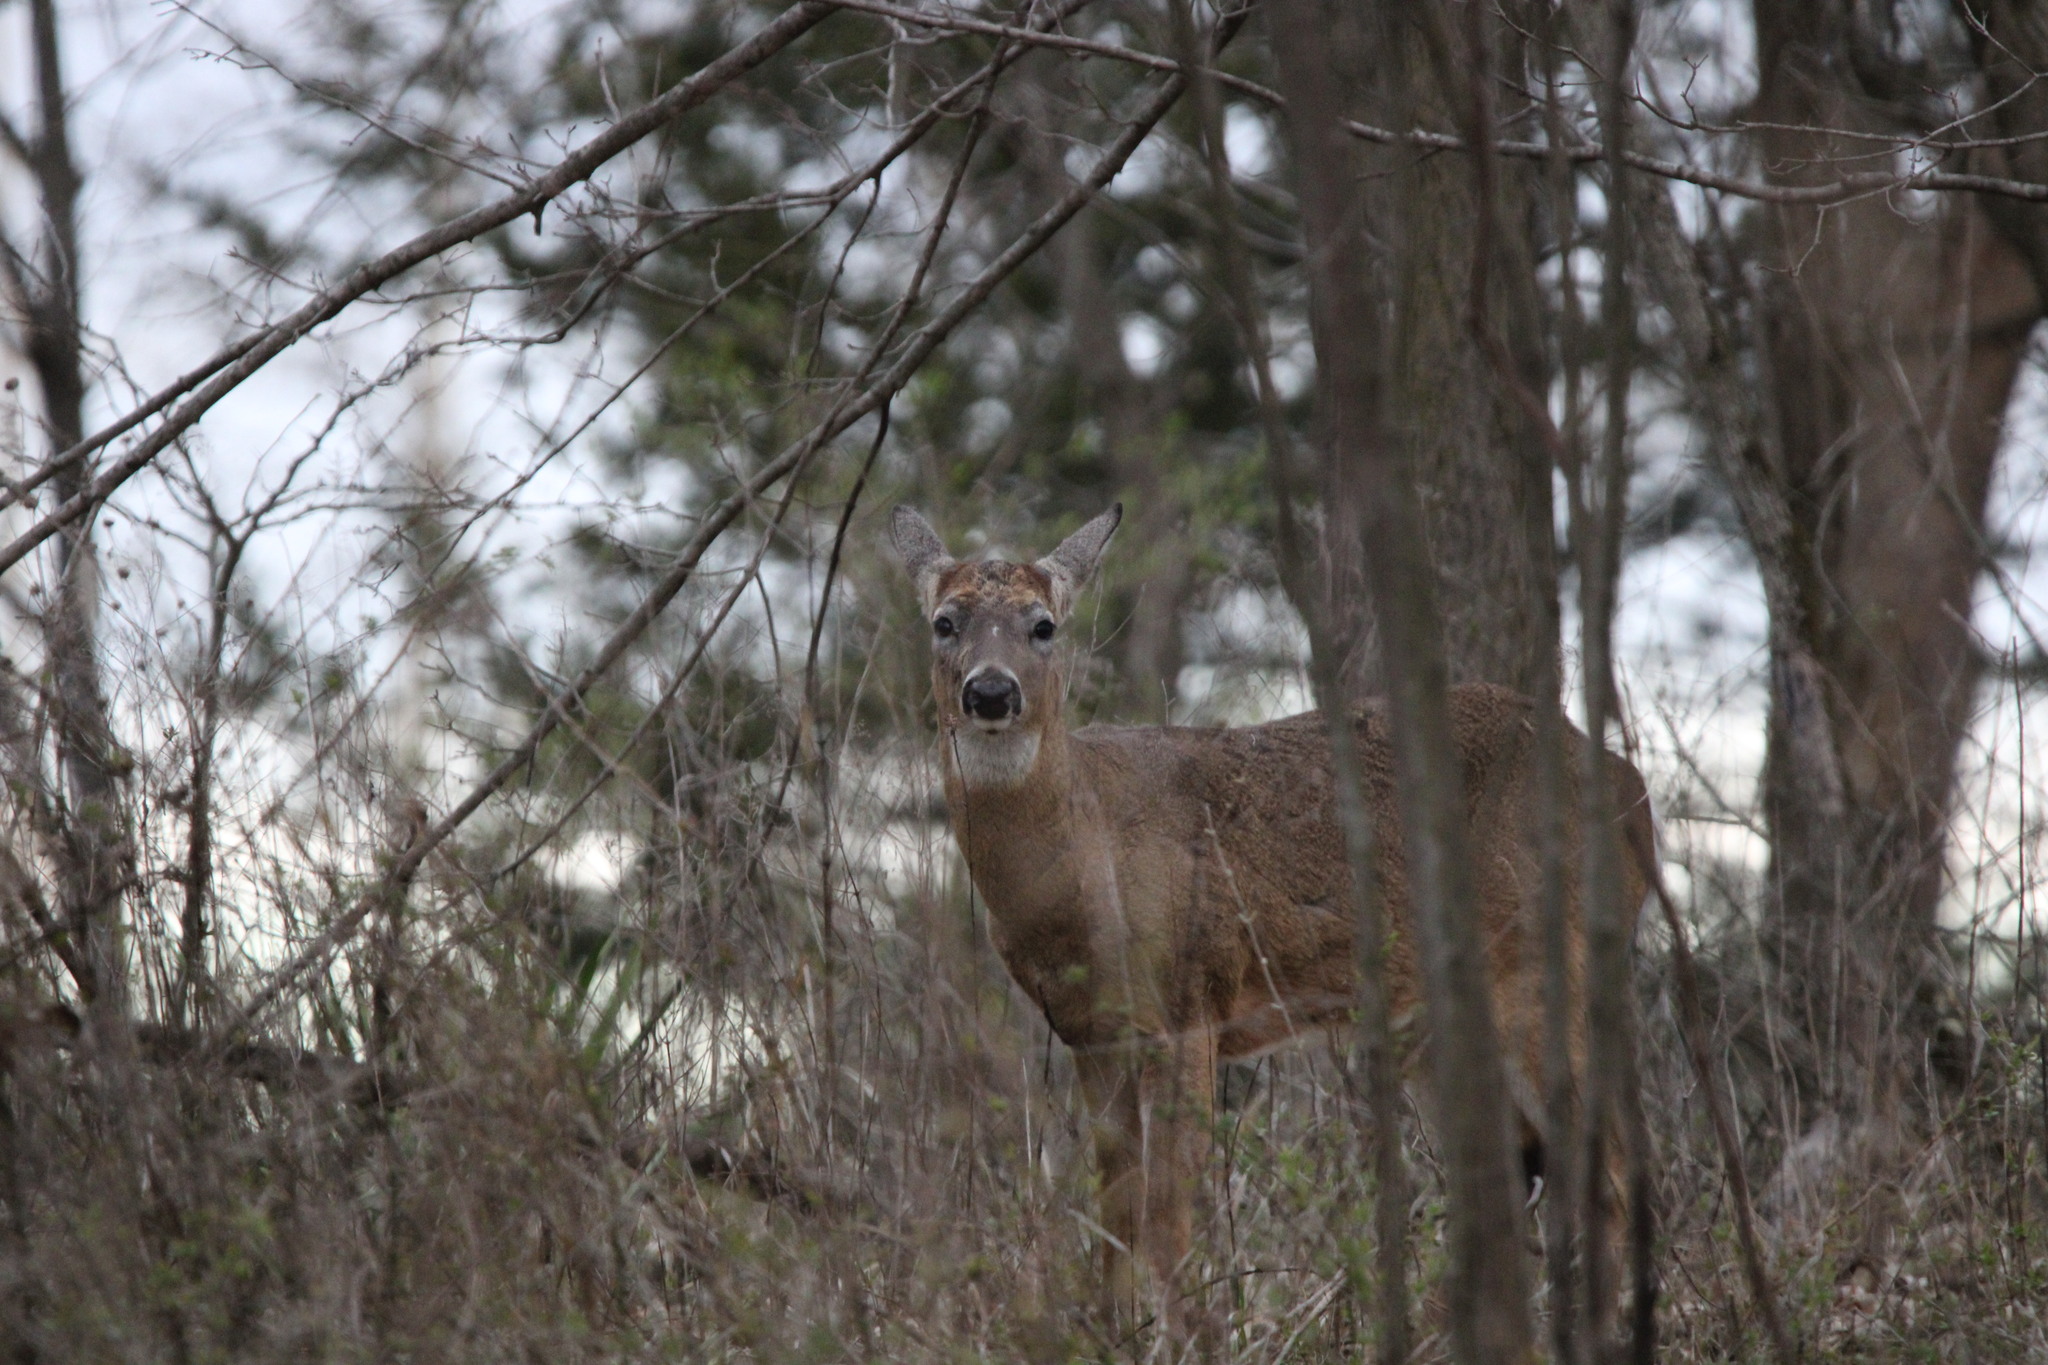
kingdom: Animalia
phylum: Chordata
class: Mammalia
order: Artiodactyla
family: Cervidae
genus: Odocoileus
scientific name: Odocoileus virginianus
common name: White-tailed deer
